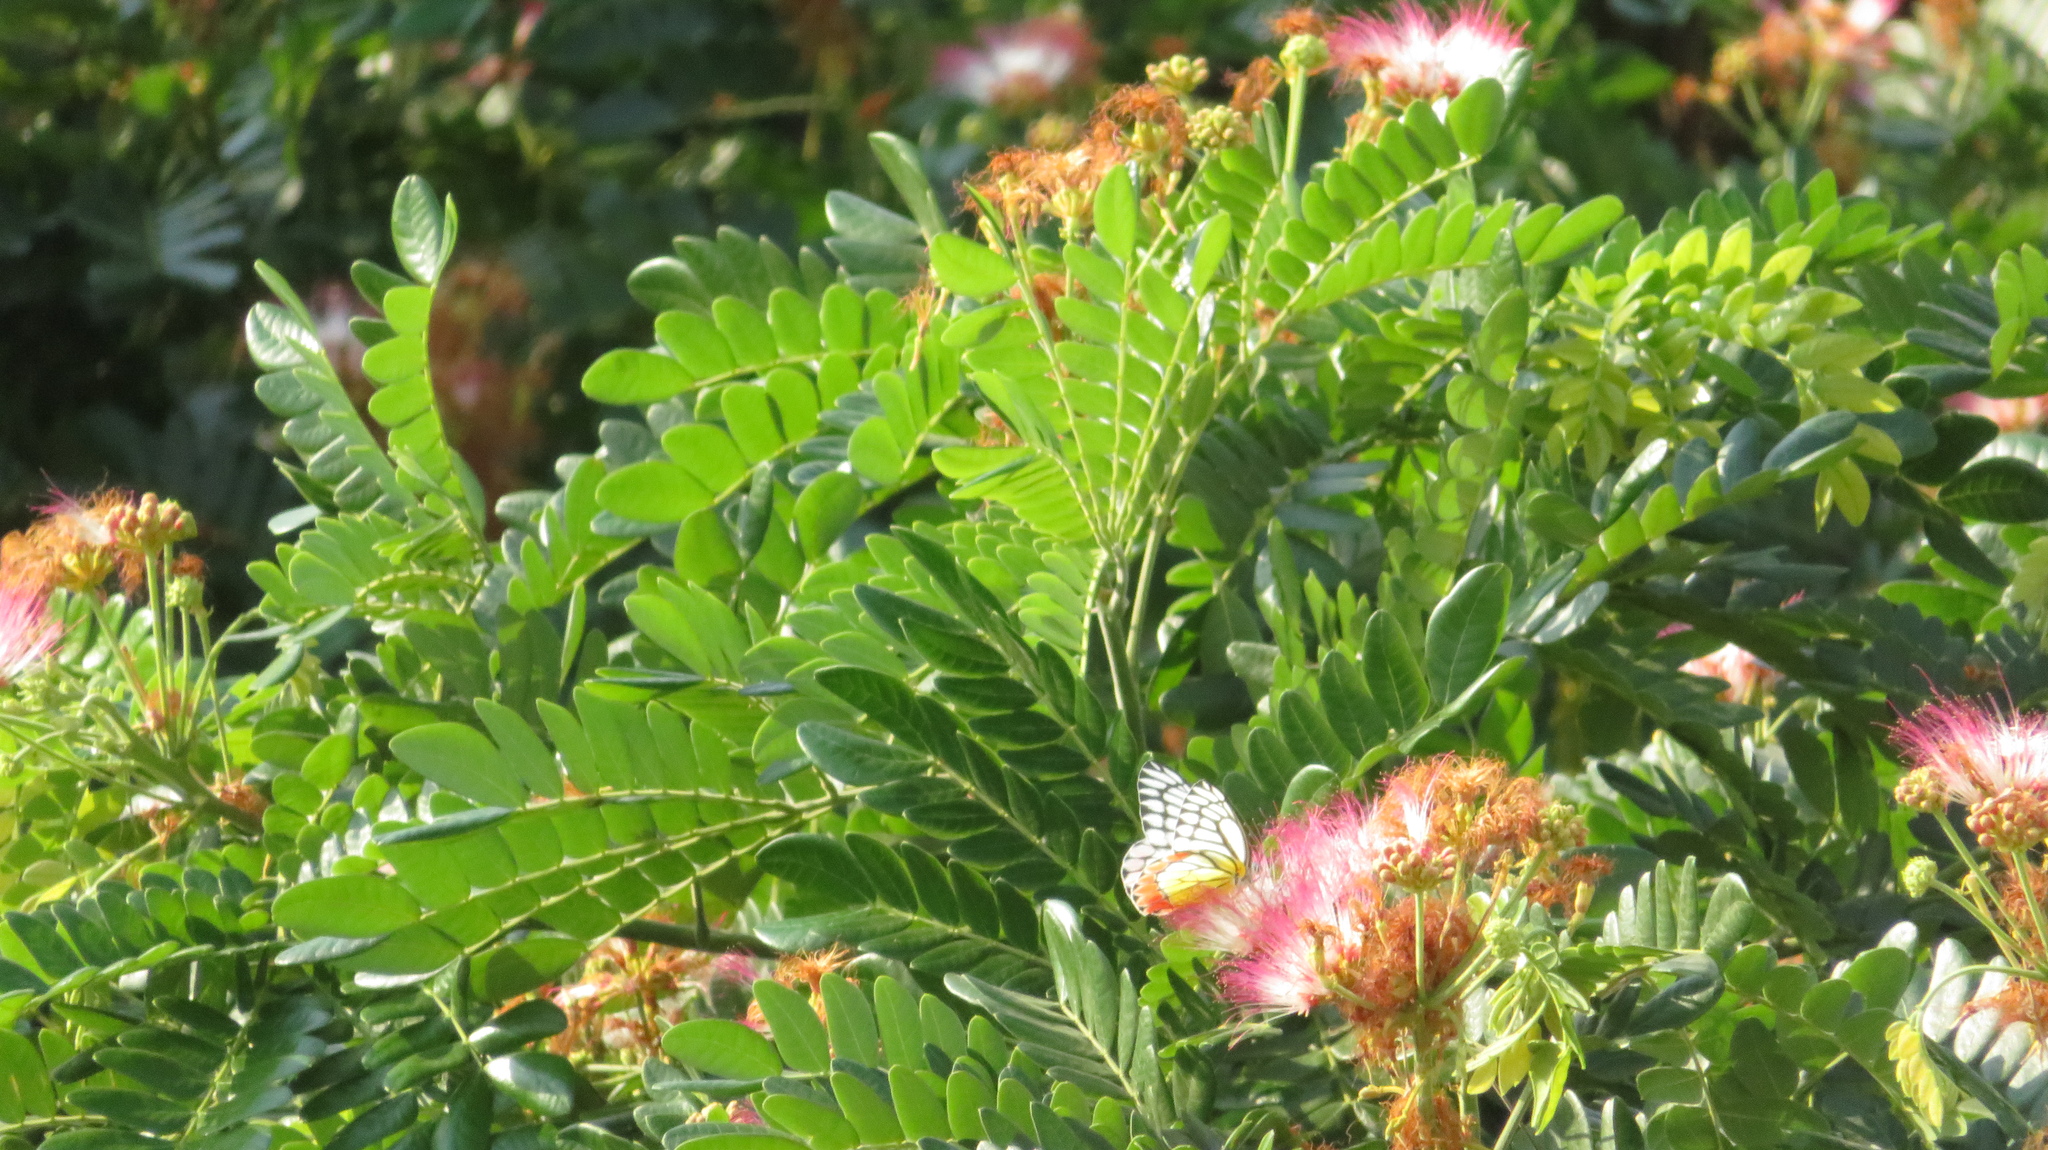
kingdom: Animalia
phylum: Arthropoda
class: Insecta
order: Lepidoptera
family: Pieridae
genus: Delias
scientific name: Delias eucharis
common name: Common jezebel
